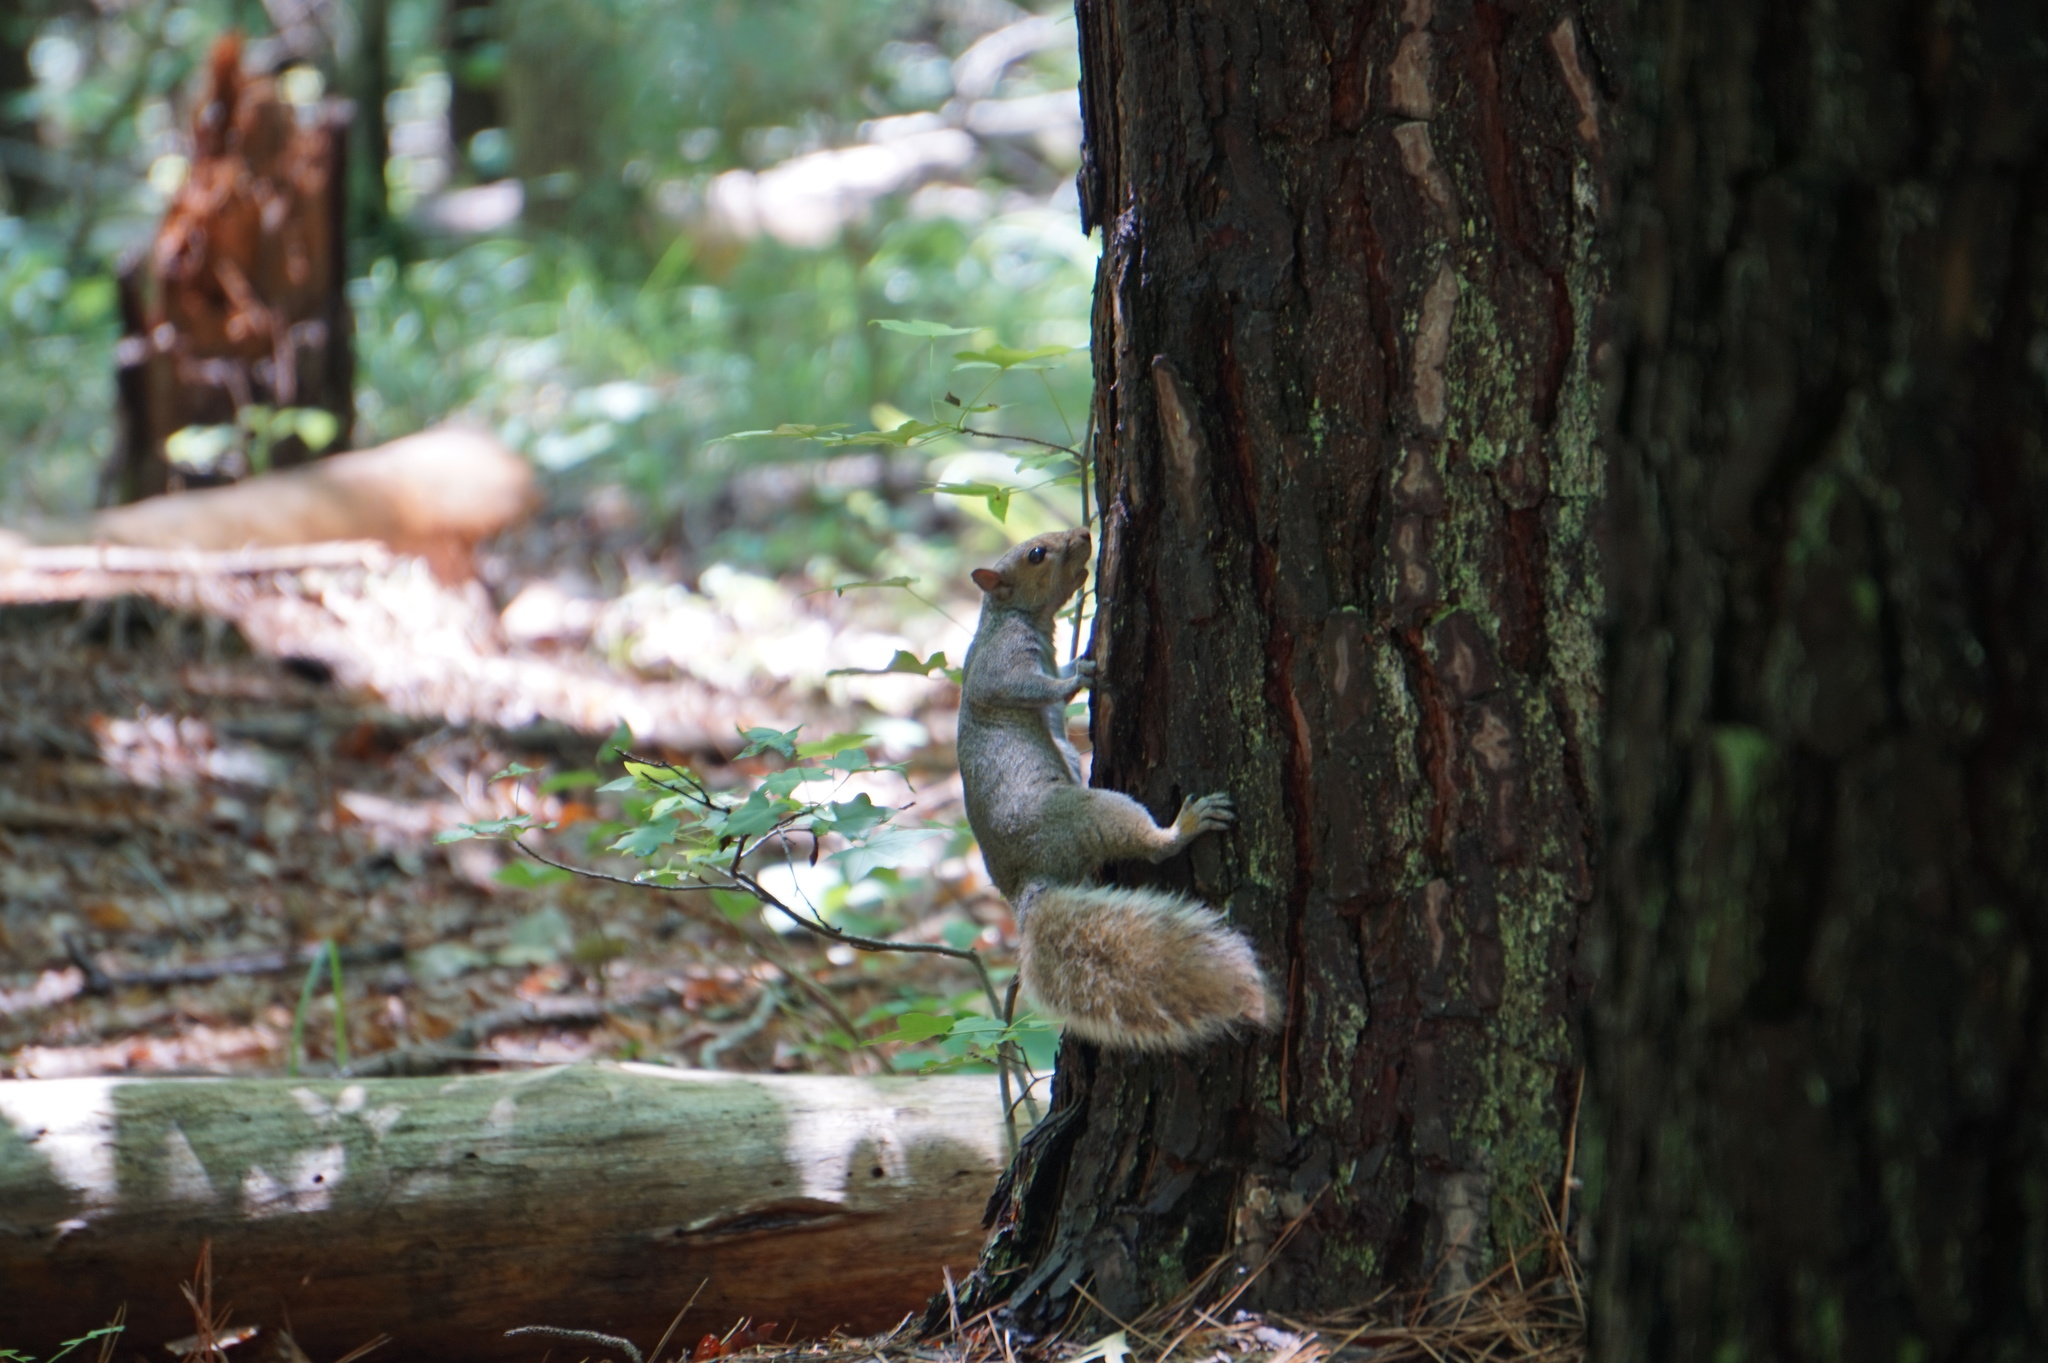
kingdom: Animalia
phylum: Chordata
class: Mammalia
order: Rodentia
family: Sciuridae
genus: Sciurus
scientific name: Sciurus carolinensis
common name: Eastern gray squirrel
